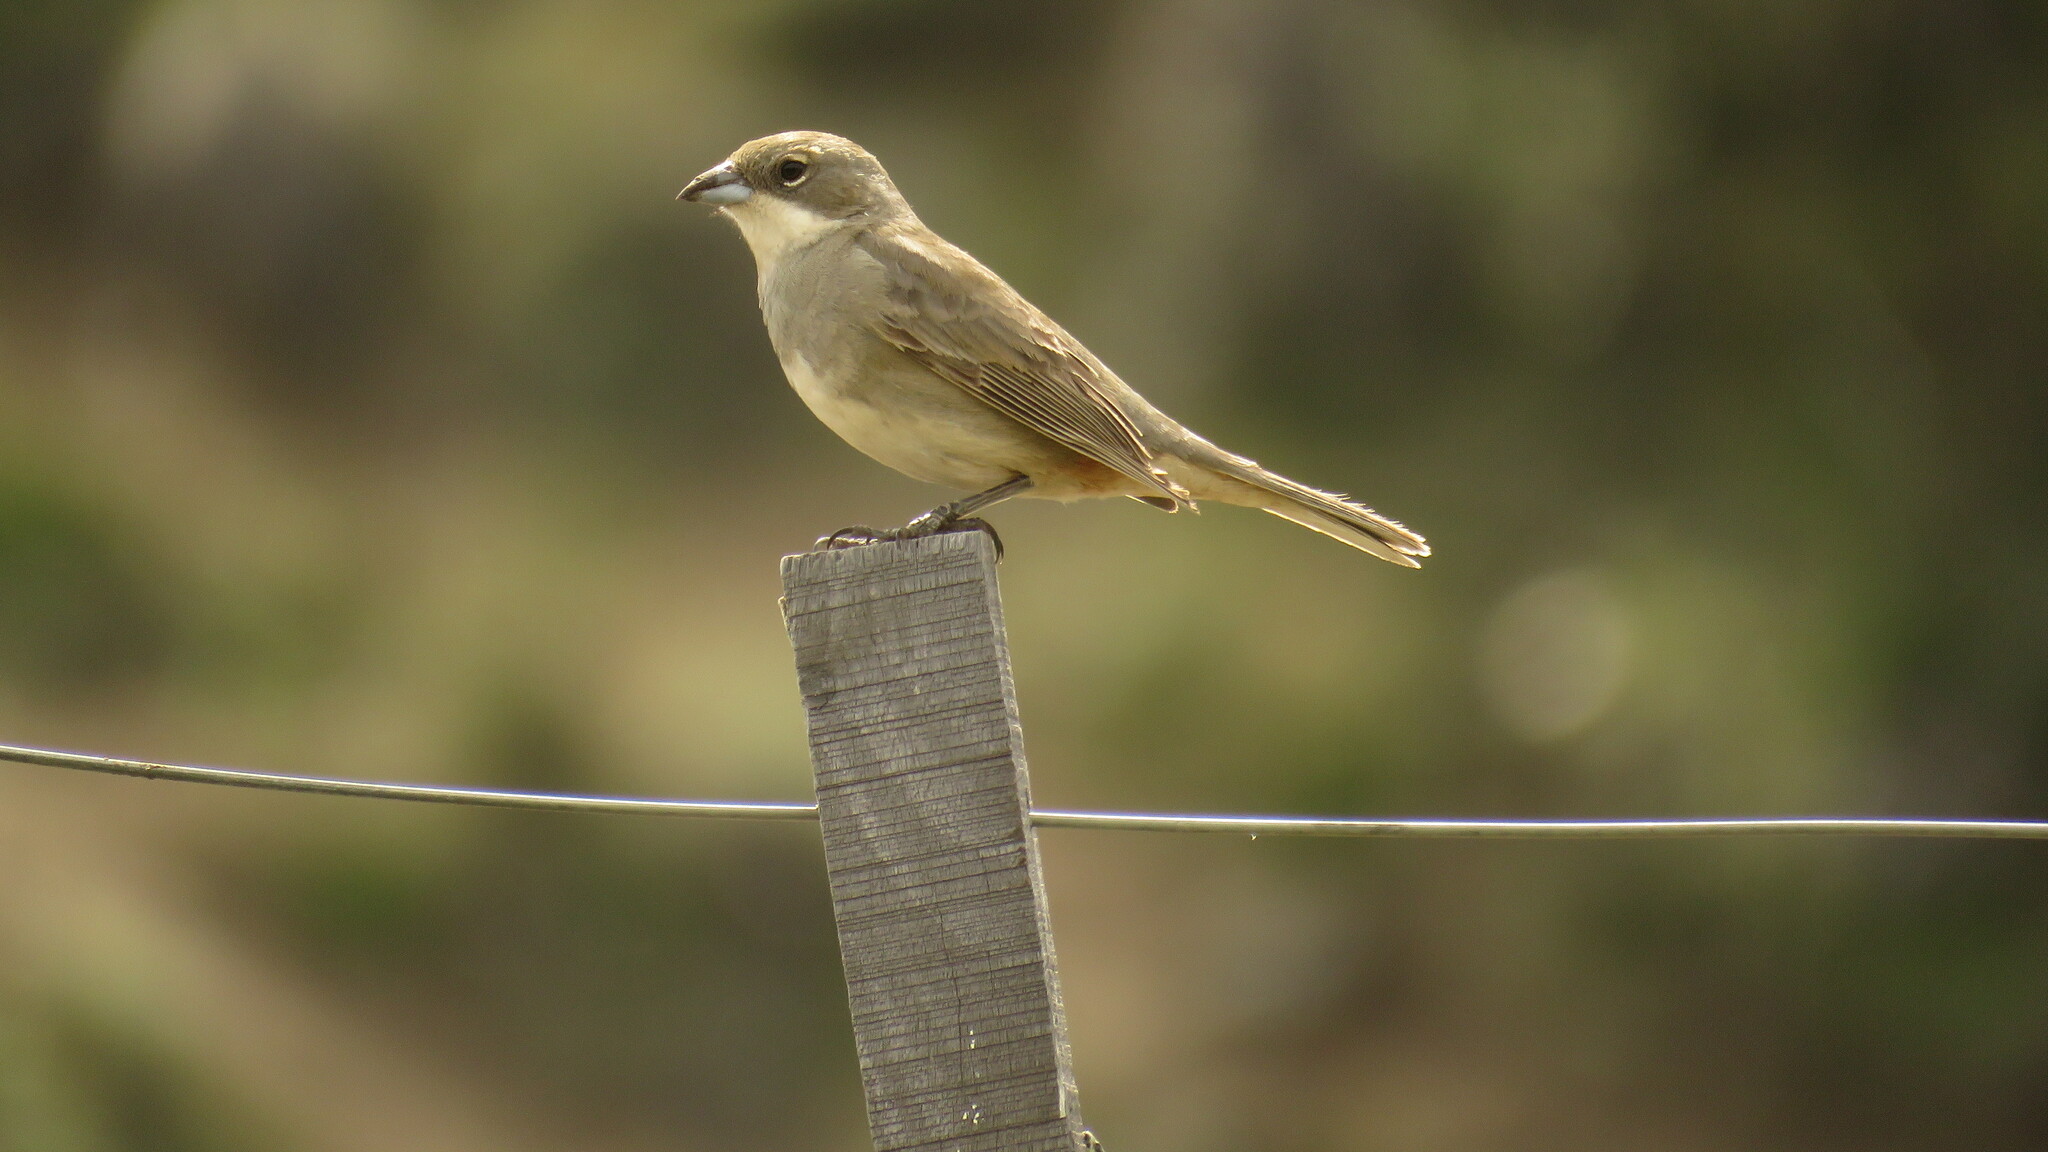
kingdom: Animalia
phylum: Chordata
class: Aves
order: Passeriformes
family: Thraupidae
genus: Diuca
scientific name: Diuca diuca
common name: Common diuca finch
